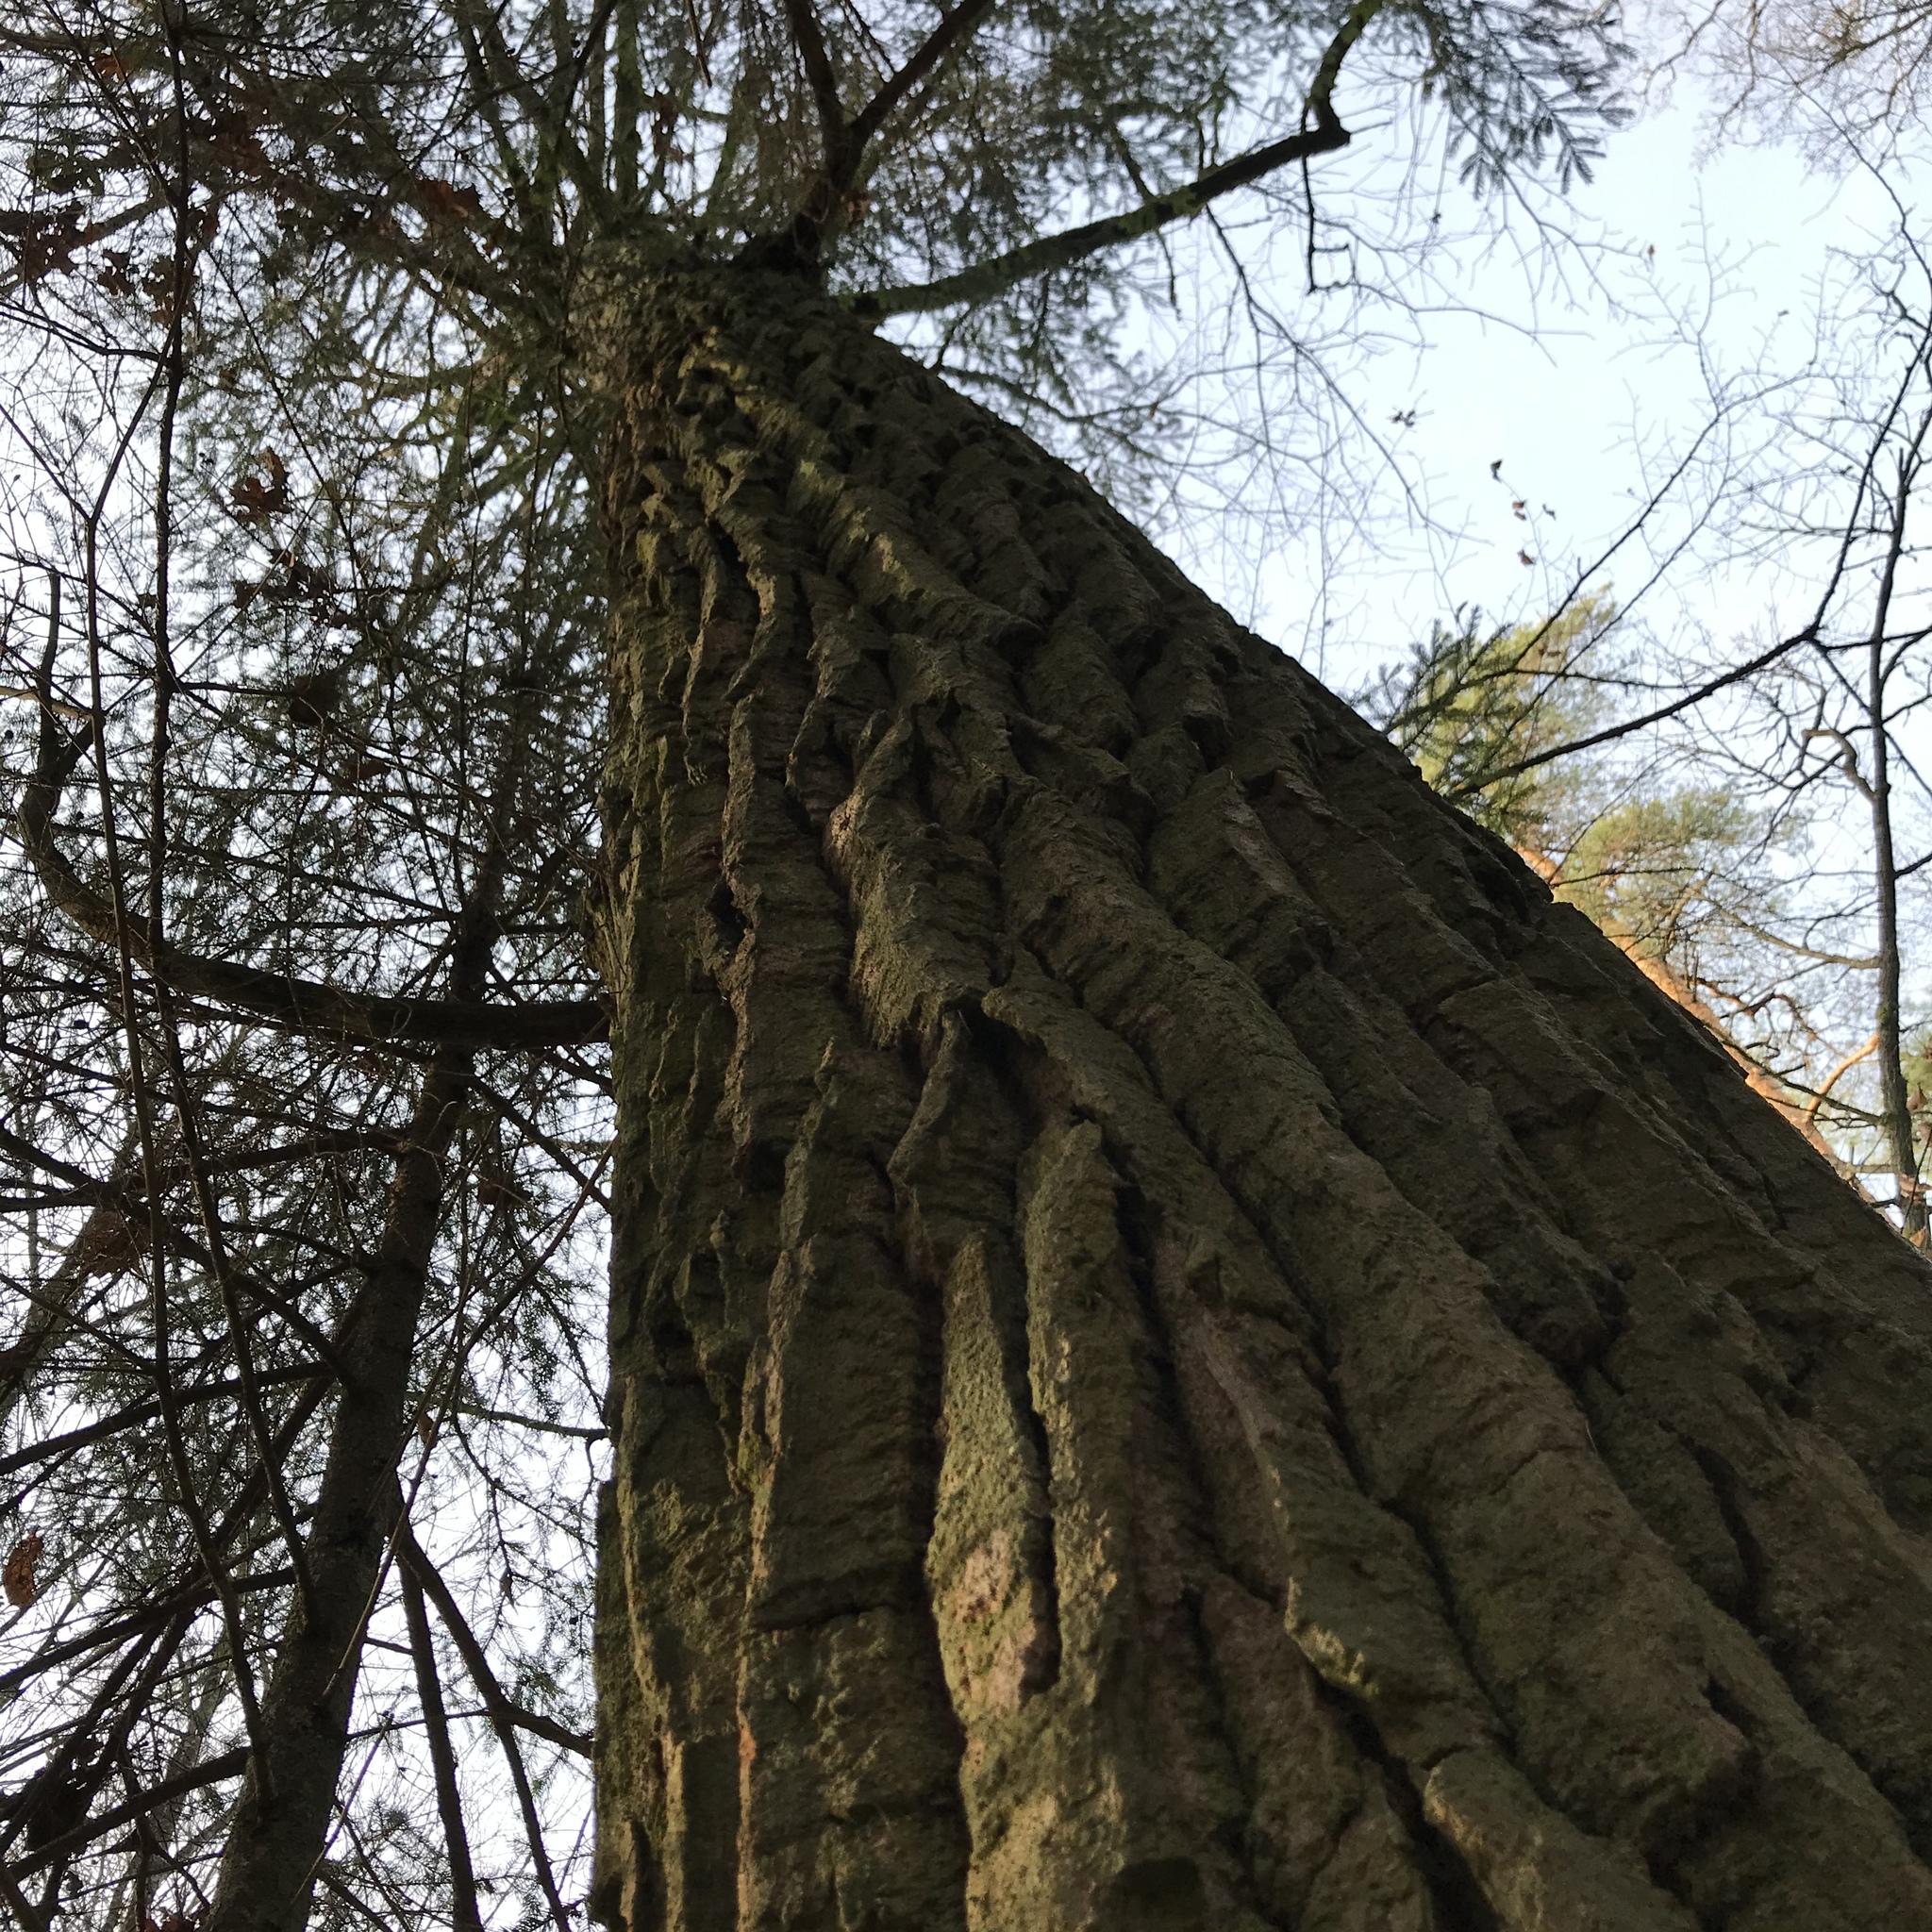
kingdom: Plantae
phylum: Tracheophyta
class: Magnoliopsida
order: Fagales
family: Fagaceae
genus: Quercus
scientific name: Quercus robur
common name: Pedunculate oak
